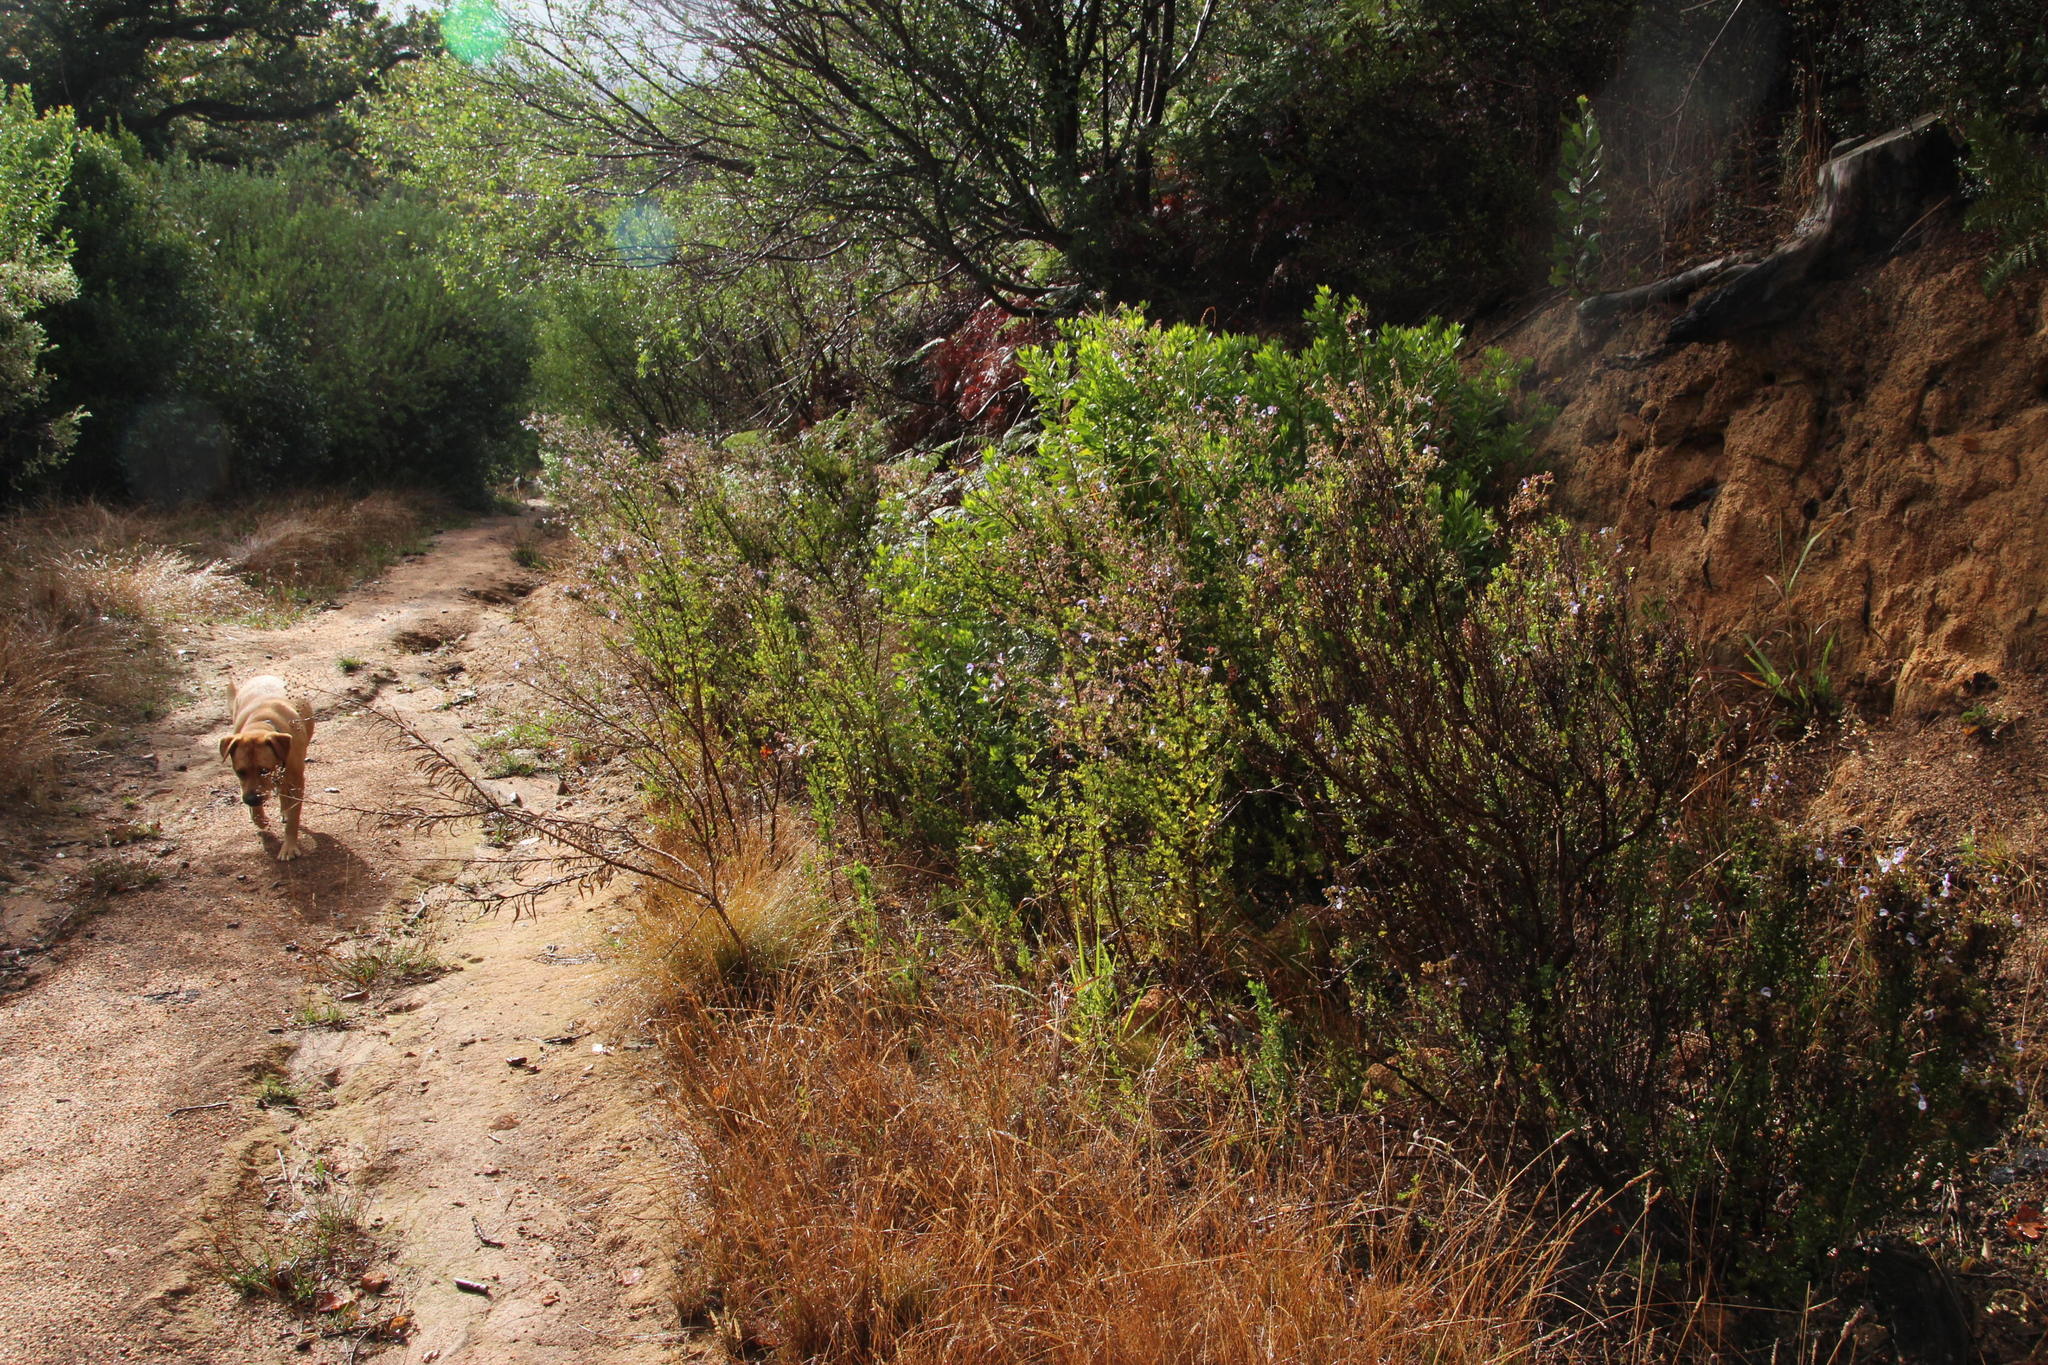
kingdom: Plantae
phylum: Tracheophyta
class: Magnoliopsida
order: Lamiales
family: Lamiaceae
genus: Salvia
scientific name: Salvia chamelaeagnea
